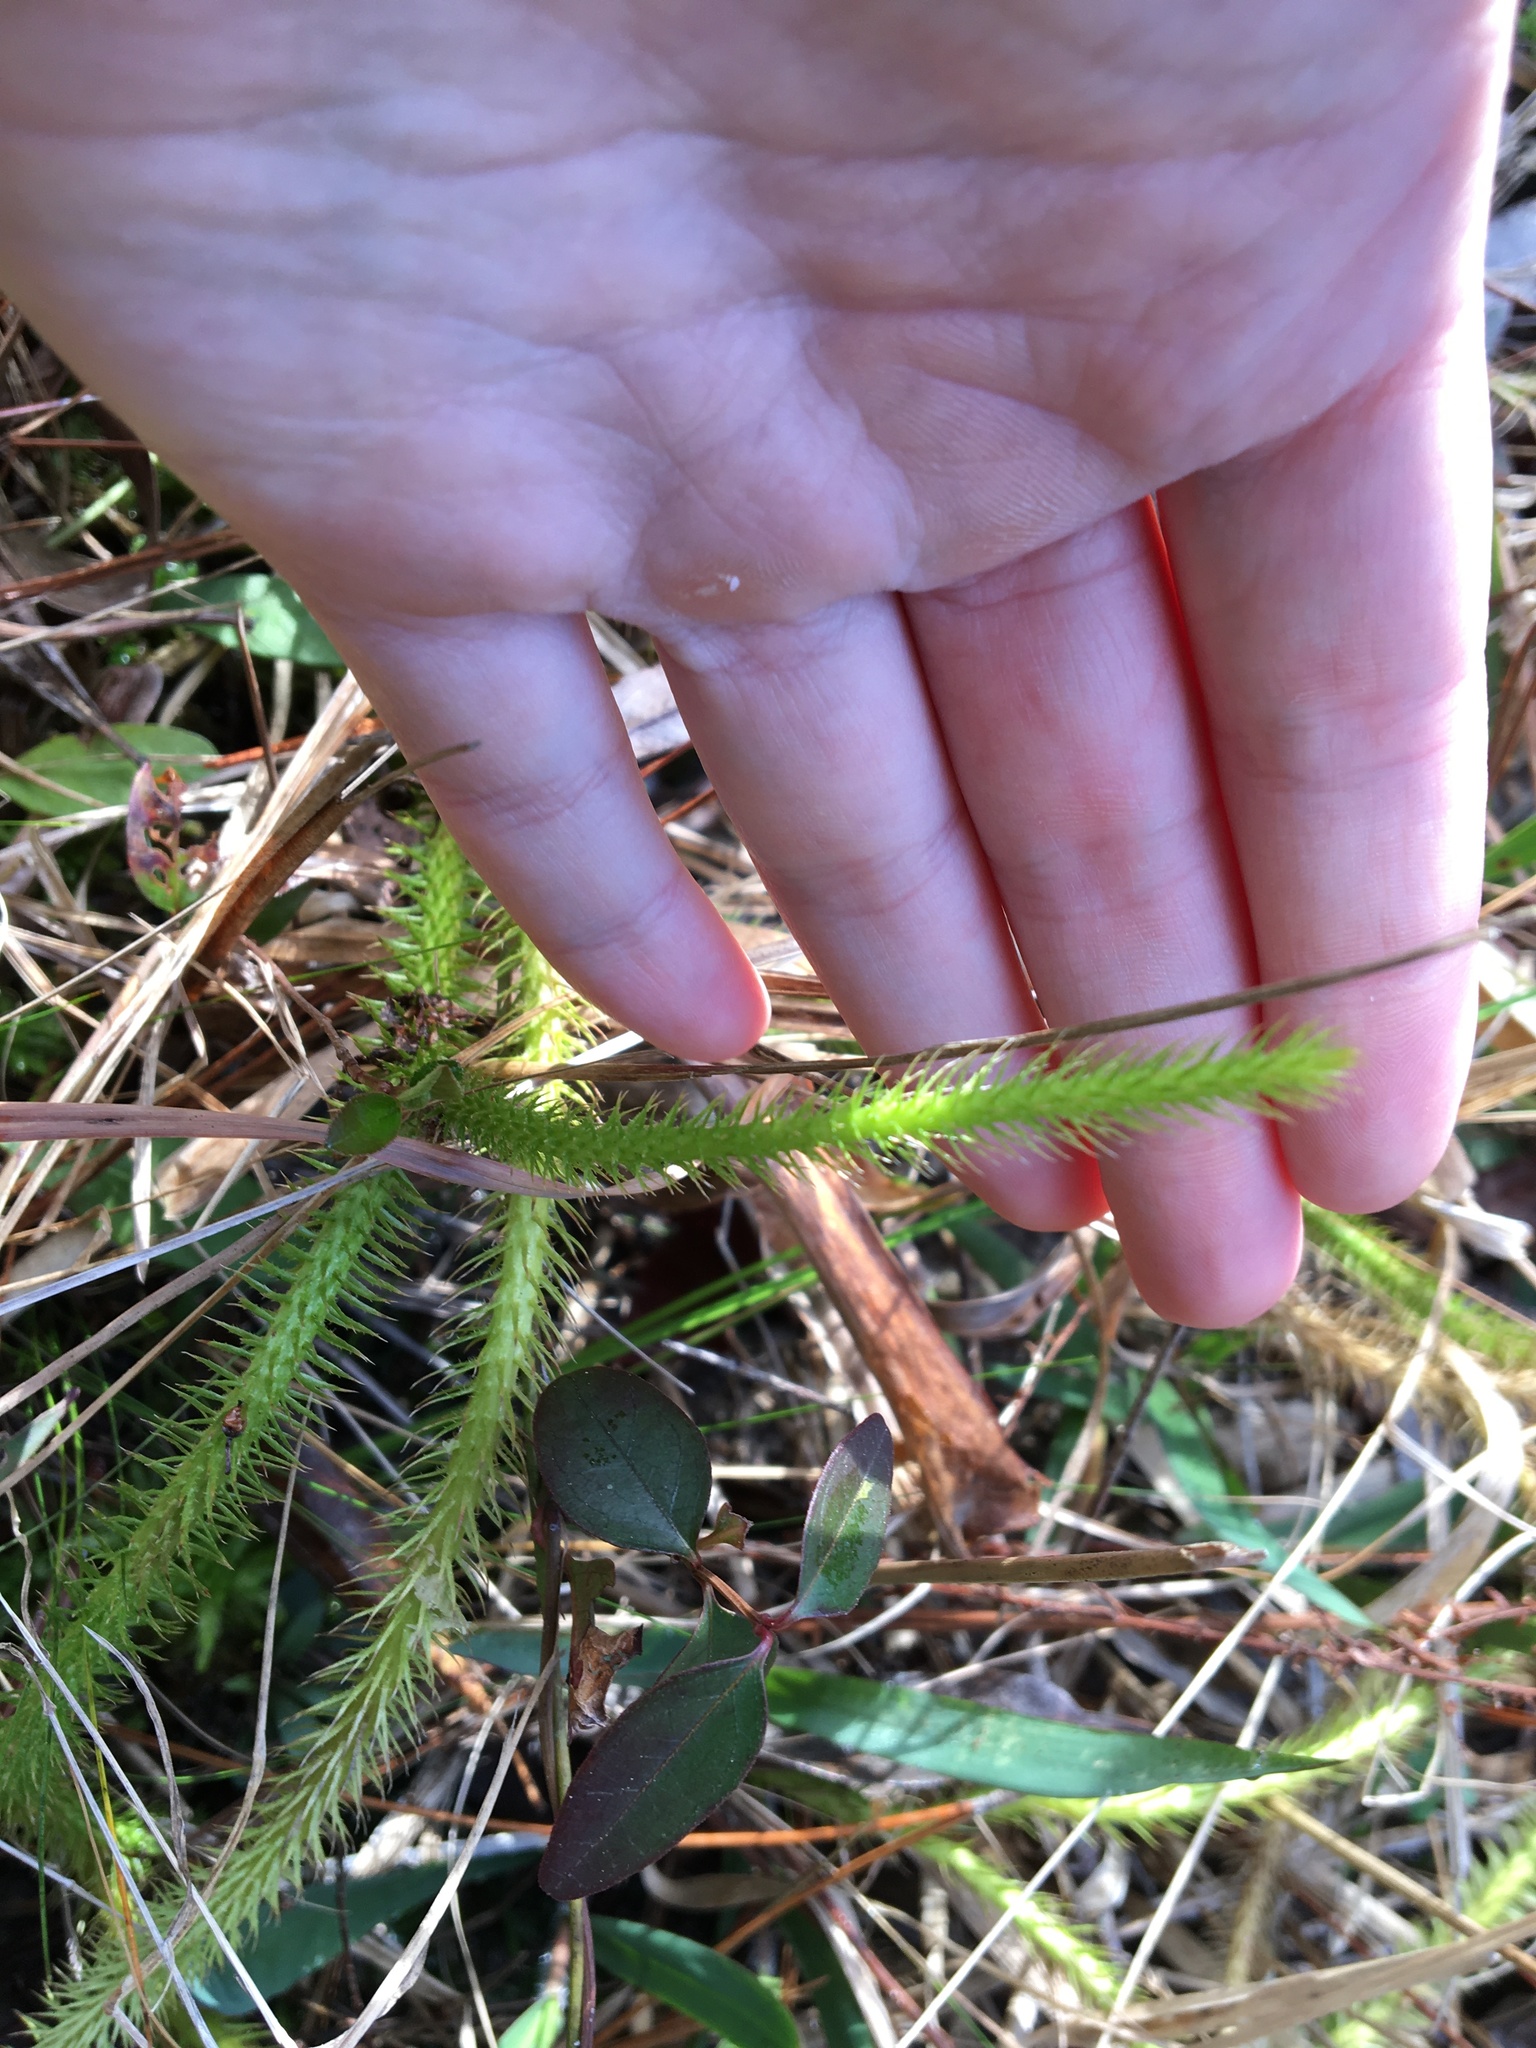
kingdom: Plantae
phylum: Tracheophyta
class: Lycopodiopsida
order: Lycopodiales
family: Lycopodiaceae
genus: Lycopodiella
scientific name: Lycopodiella alopecuroides
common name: Foxtail clubmoss
